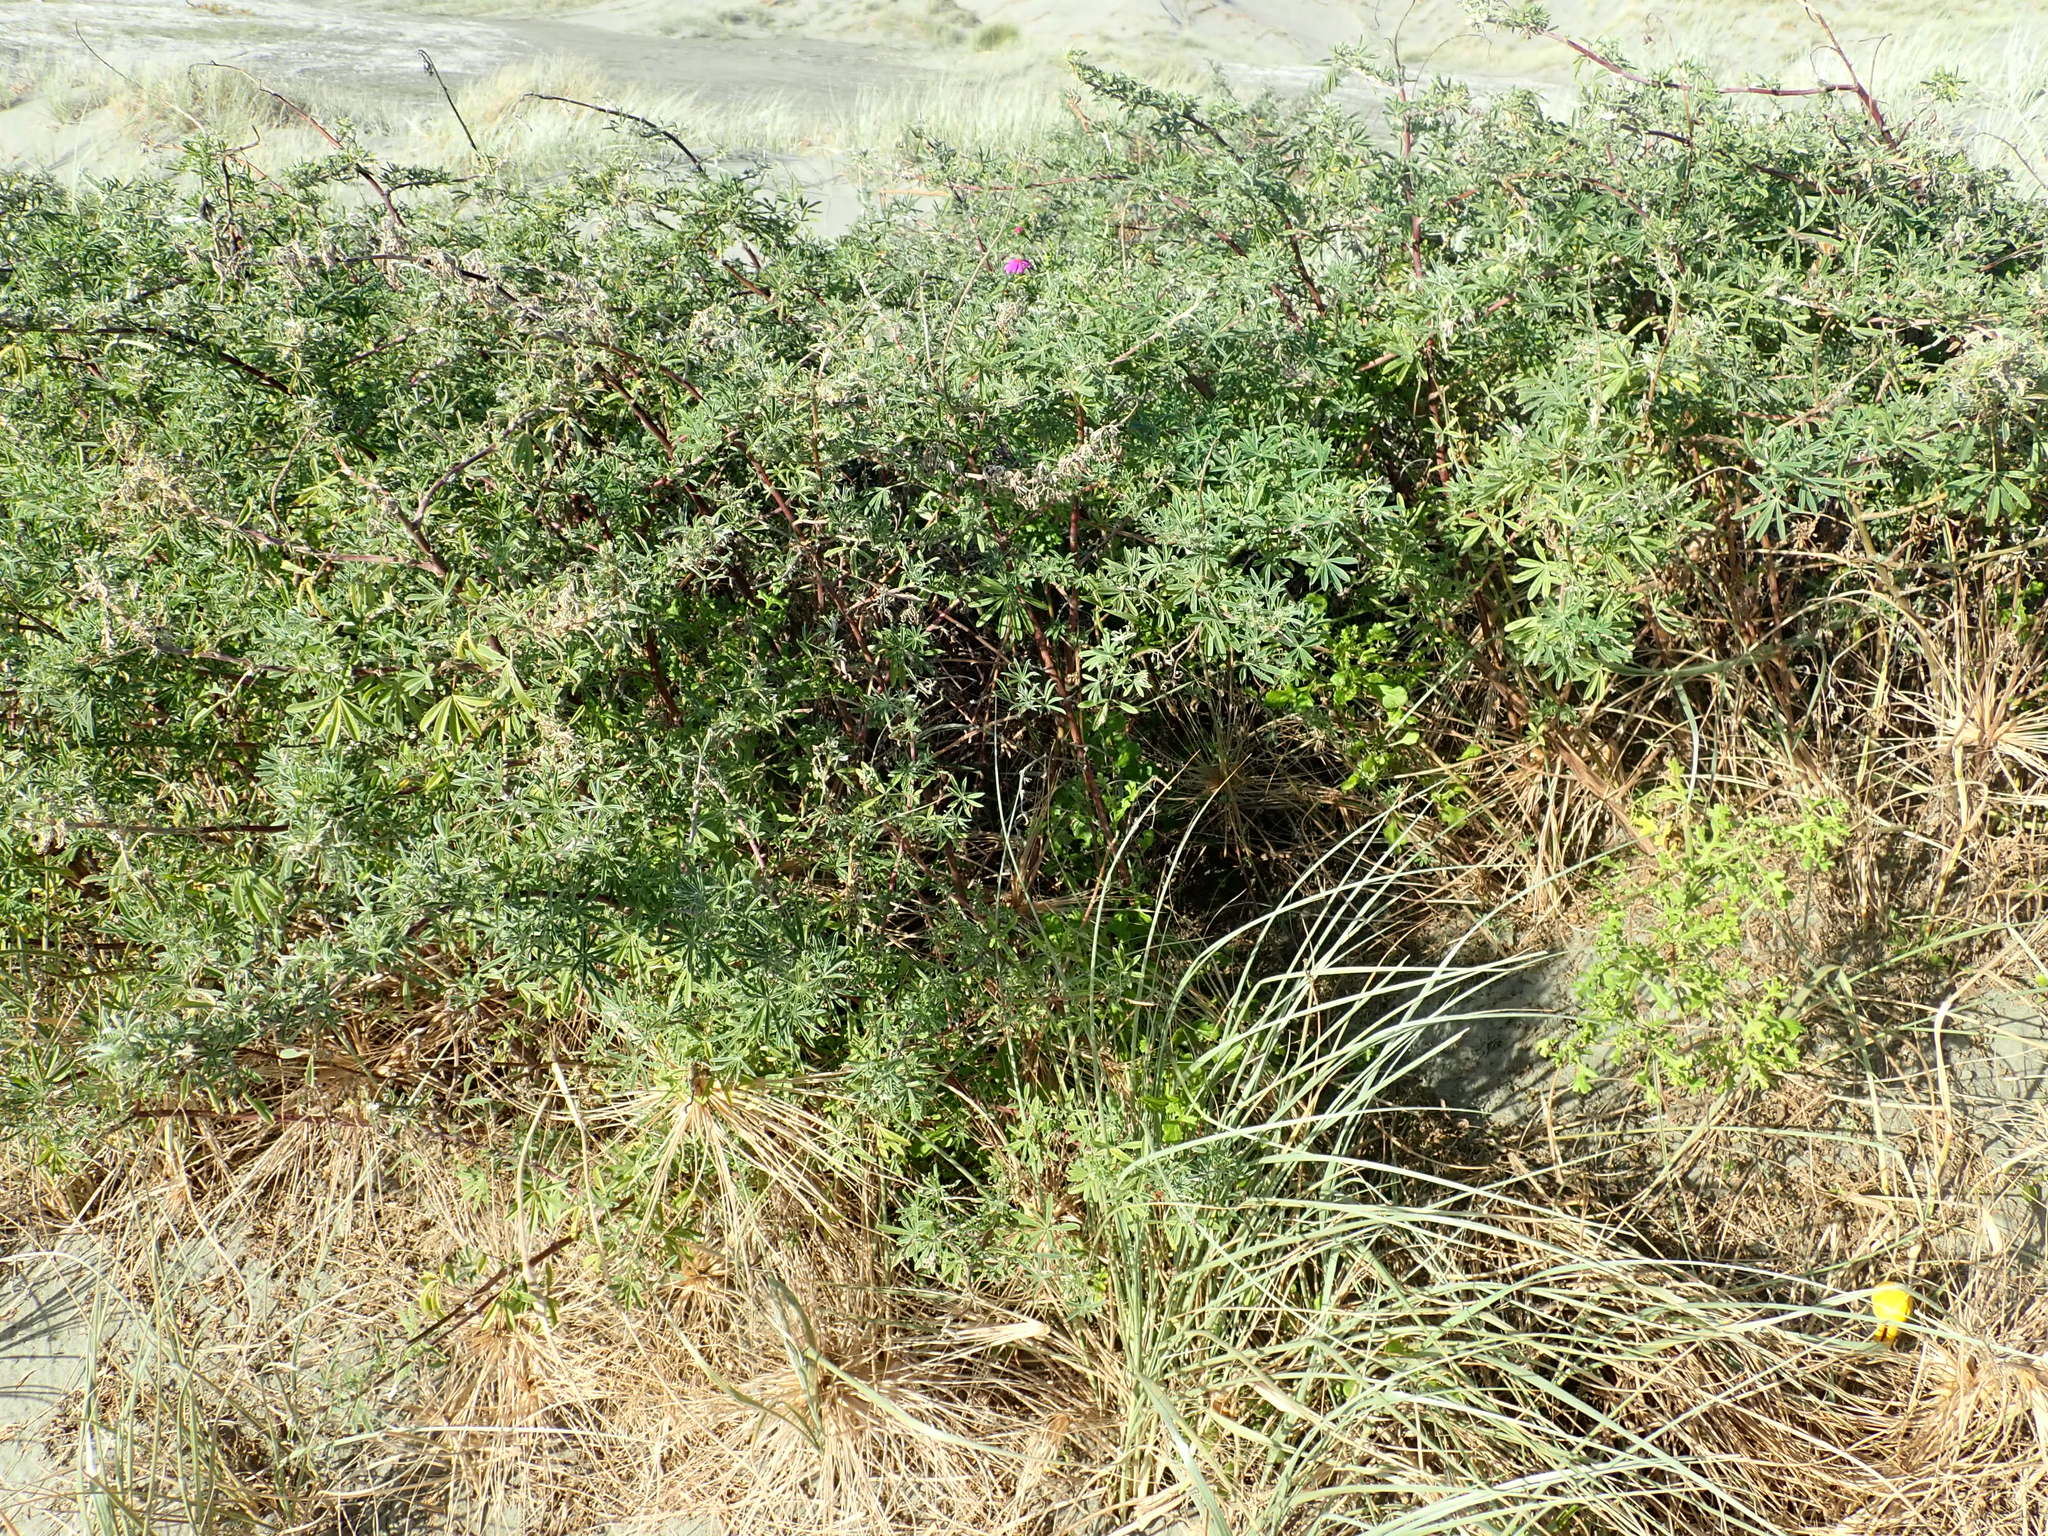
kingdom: Plantae
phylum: Tracheophyta
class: Magnoliopsida
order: Fabales
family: Fabaceae
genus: Lupinus
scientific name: Lupinus arboreus
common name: Yellow bush lupine
